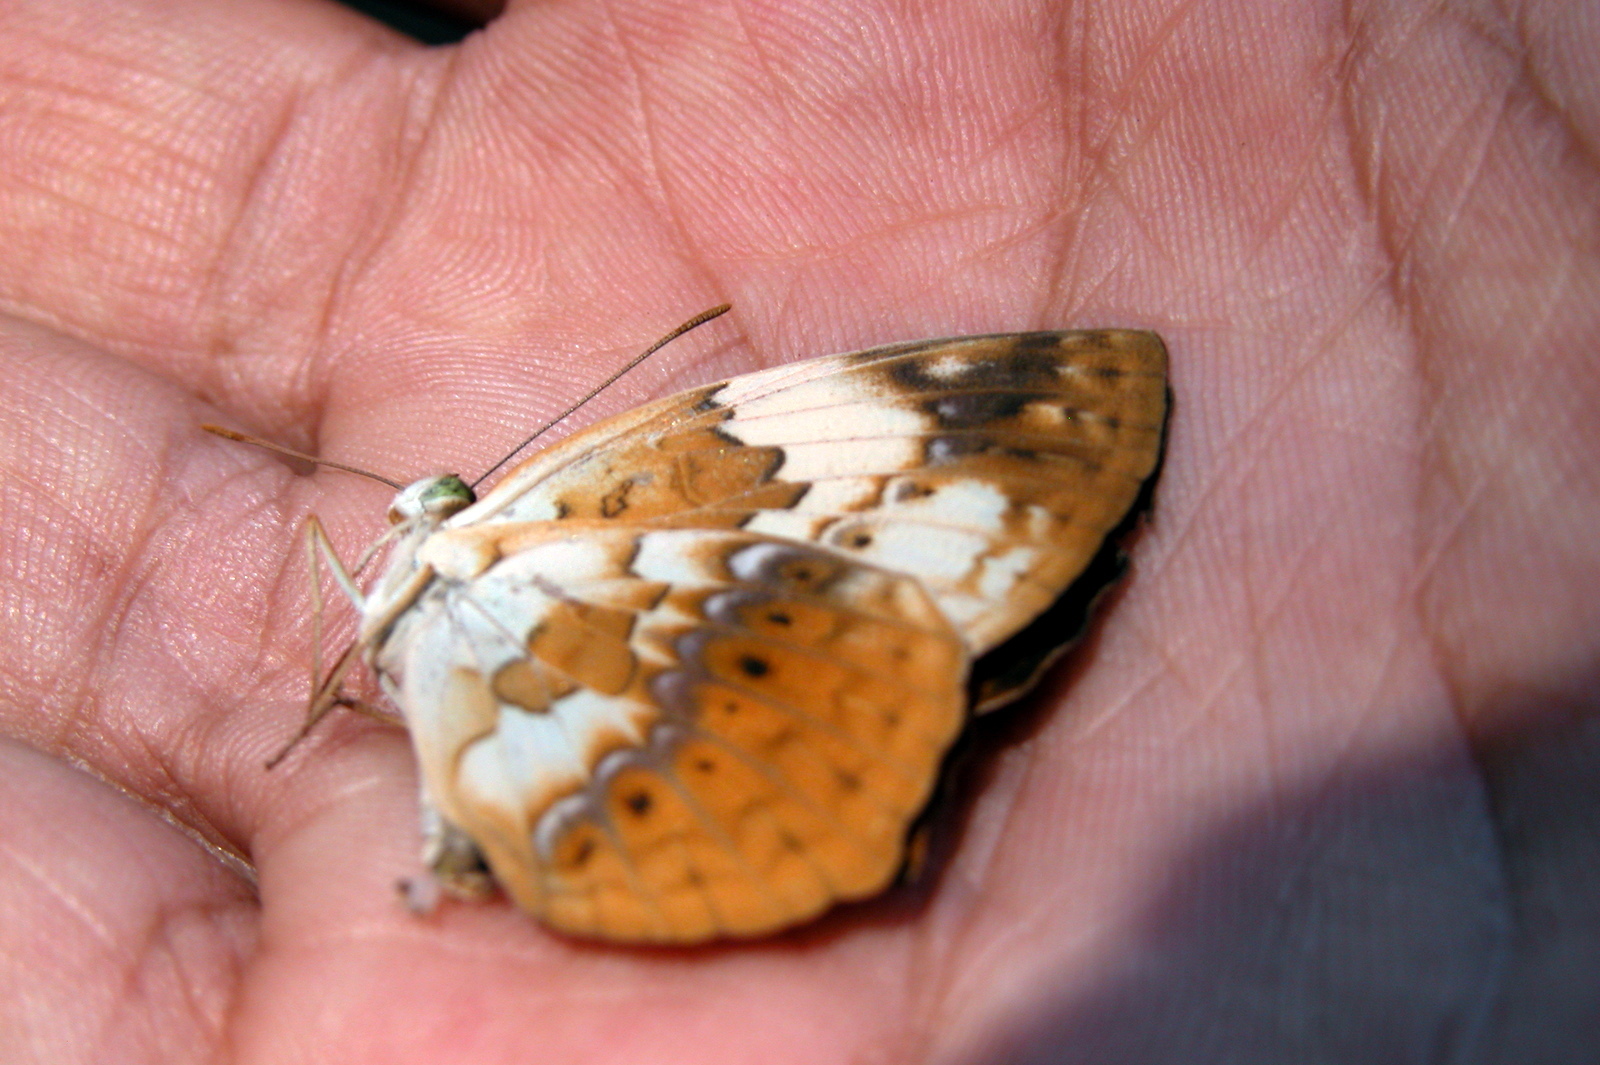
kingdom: Animalia
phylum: Arthropoda
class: Insecta
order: Lepidoptera
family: Nymphalidae
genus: Cupha
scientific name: Cupha erymanthis
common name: Rustic
